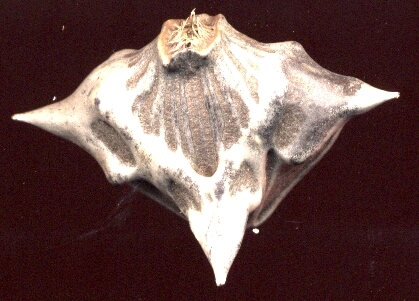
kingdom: Plantae
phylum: Tracheophyta
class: Magnoliopsida
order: Myrtales
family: Lythraceae
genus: Trapa
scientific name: Trapa natans
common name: Water chestnut
